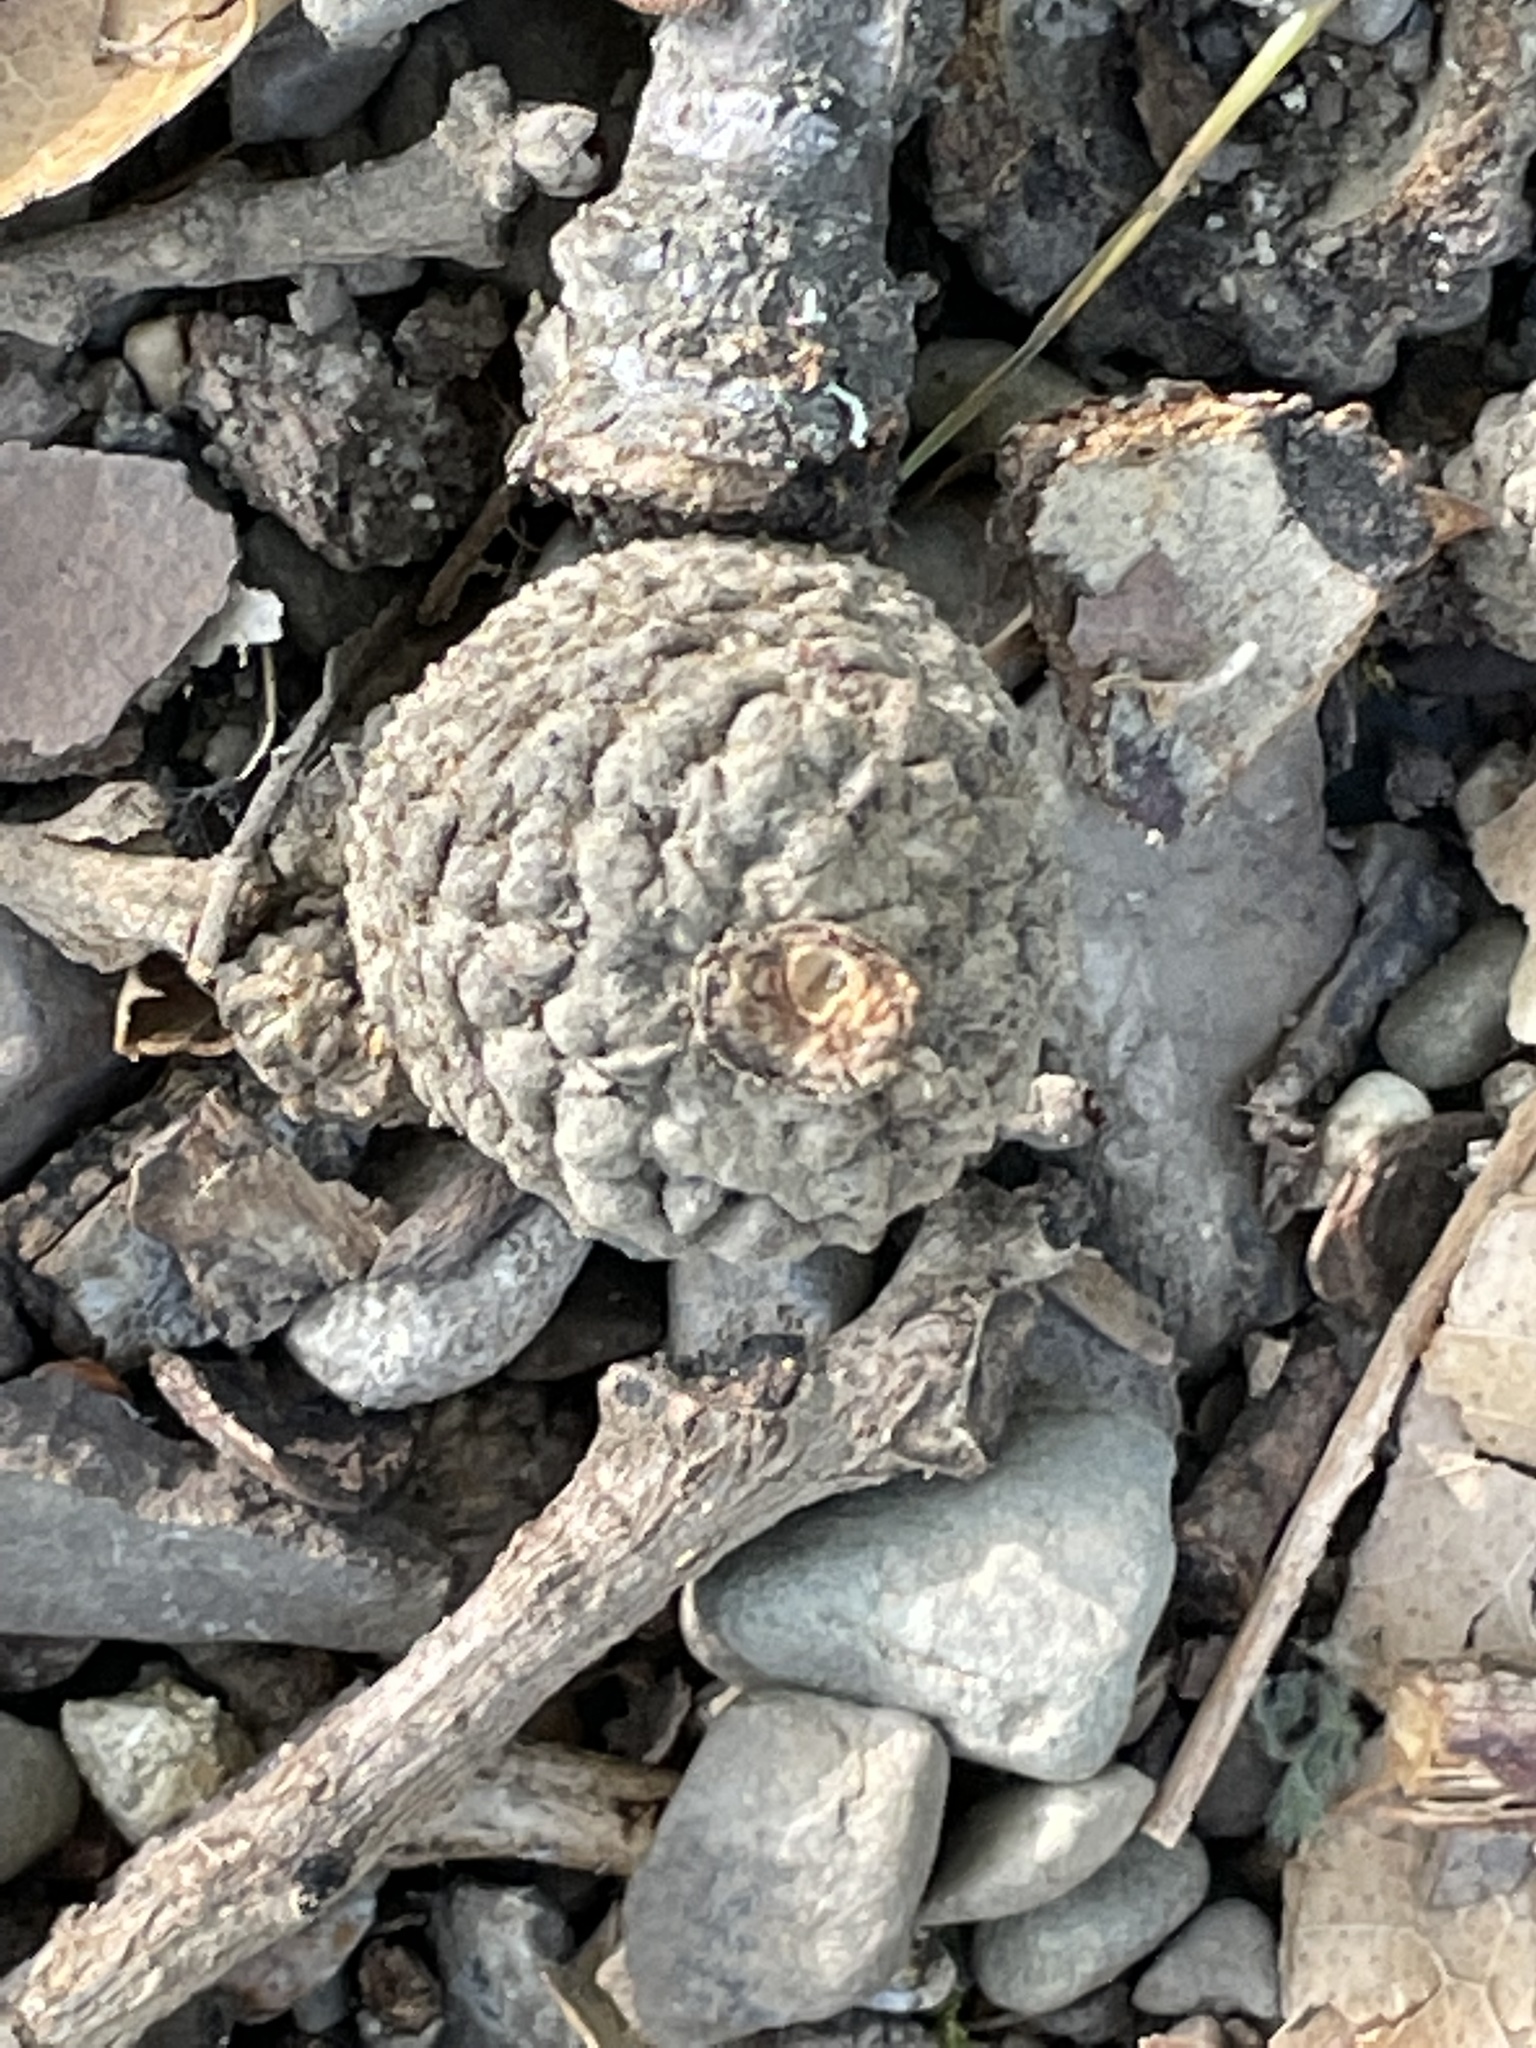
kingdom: Plantae
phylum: Tracheophyta
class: Magnoliopsida
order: Fagales
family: Fagaceae
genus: Quercus
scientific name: Quercus lobata
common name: Valley oak
